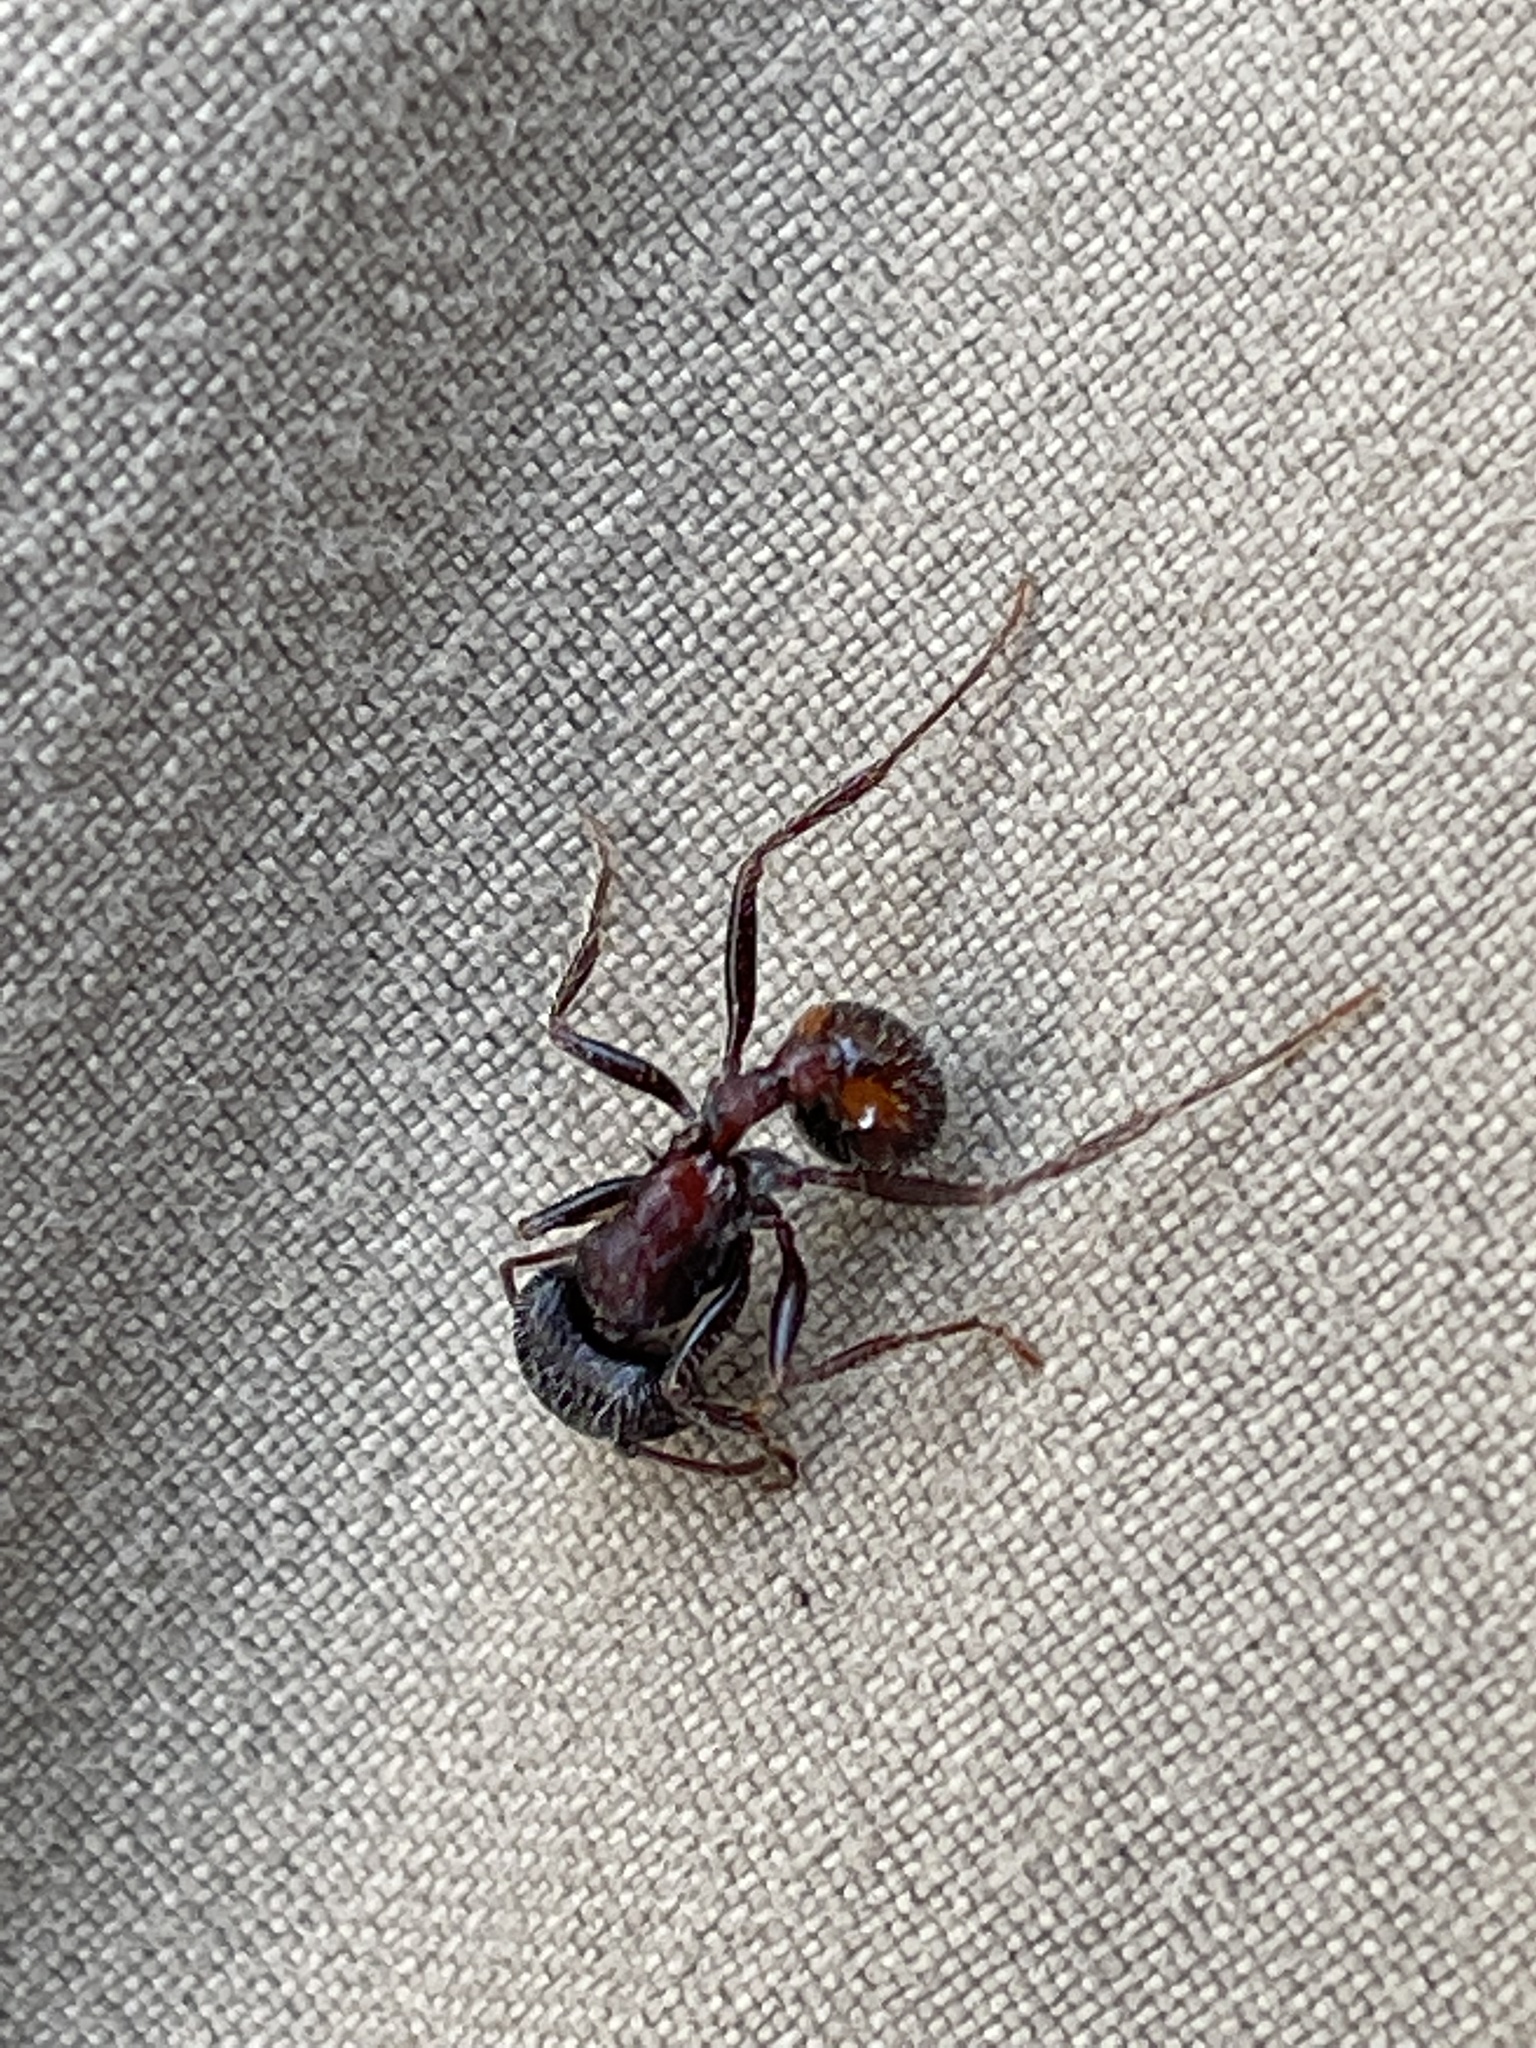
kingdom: Animalia
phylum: Arthropoda
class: Insecta
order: Hymenoptera
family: Formicidae
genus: Pogonomyrmex
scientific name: Pogonomyrmex rugosus
